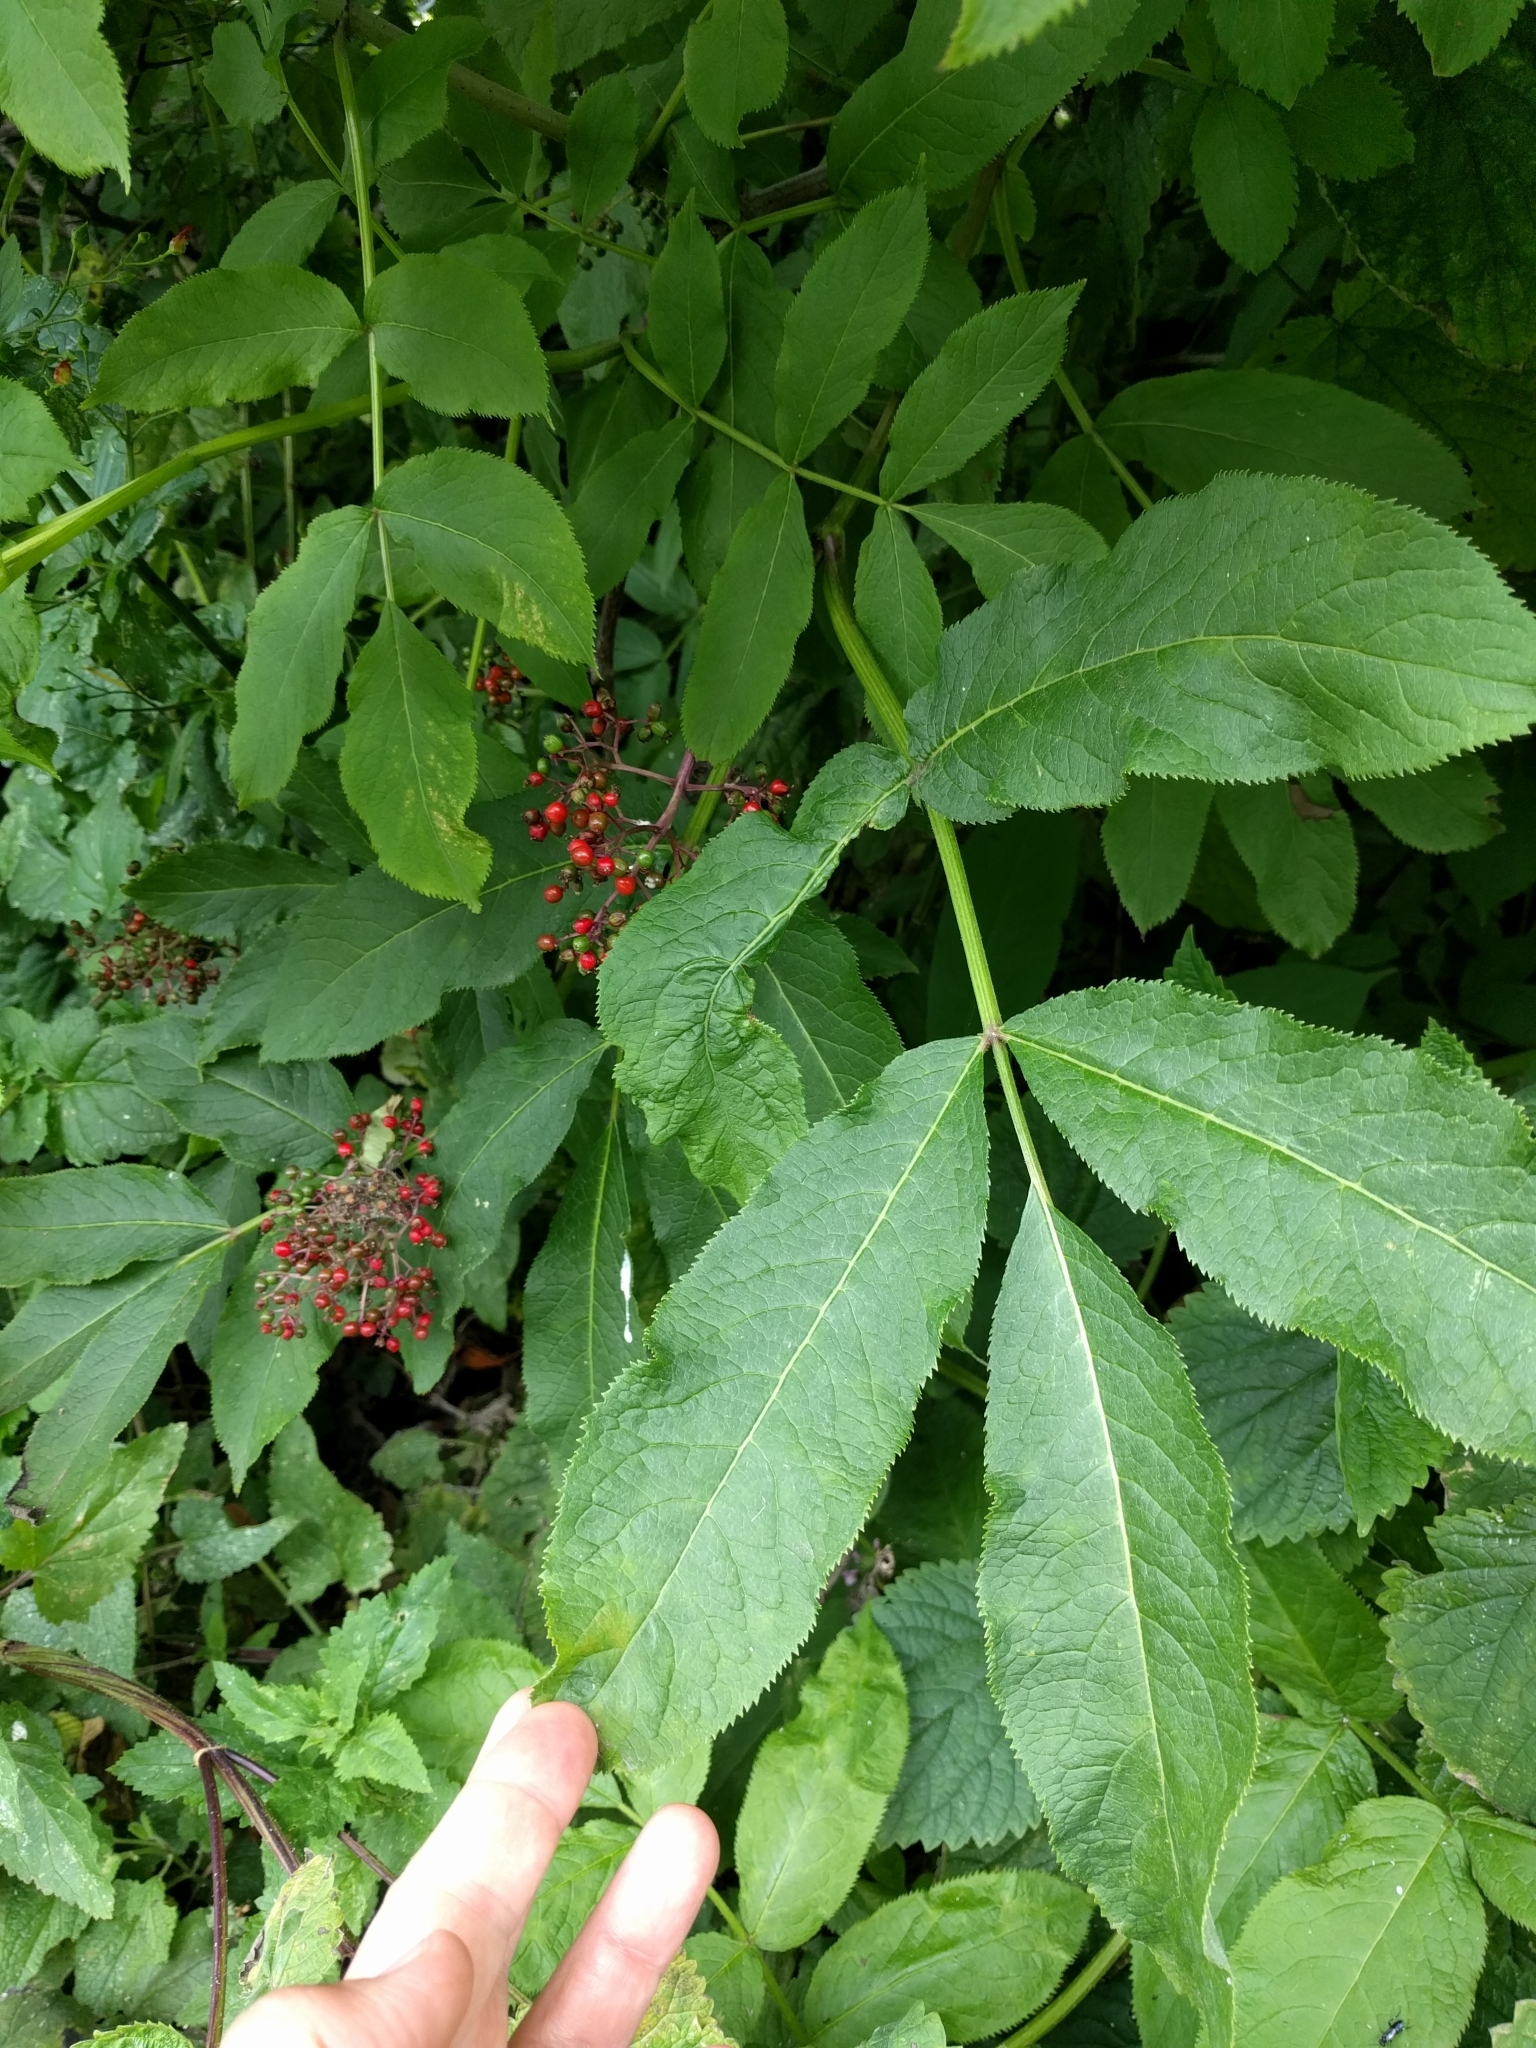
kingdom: Plantae
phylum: Tracheophyta
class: Magnoliopsida
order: Dipsacales
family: Viburnaceae
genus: Sambucus
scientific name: Sambucus racemosa
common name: Red-berried elder
